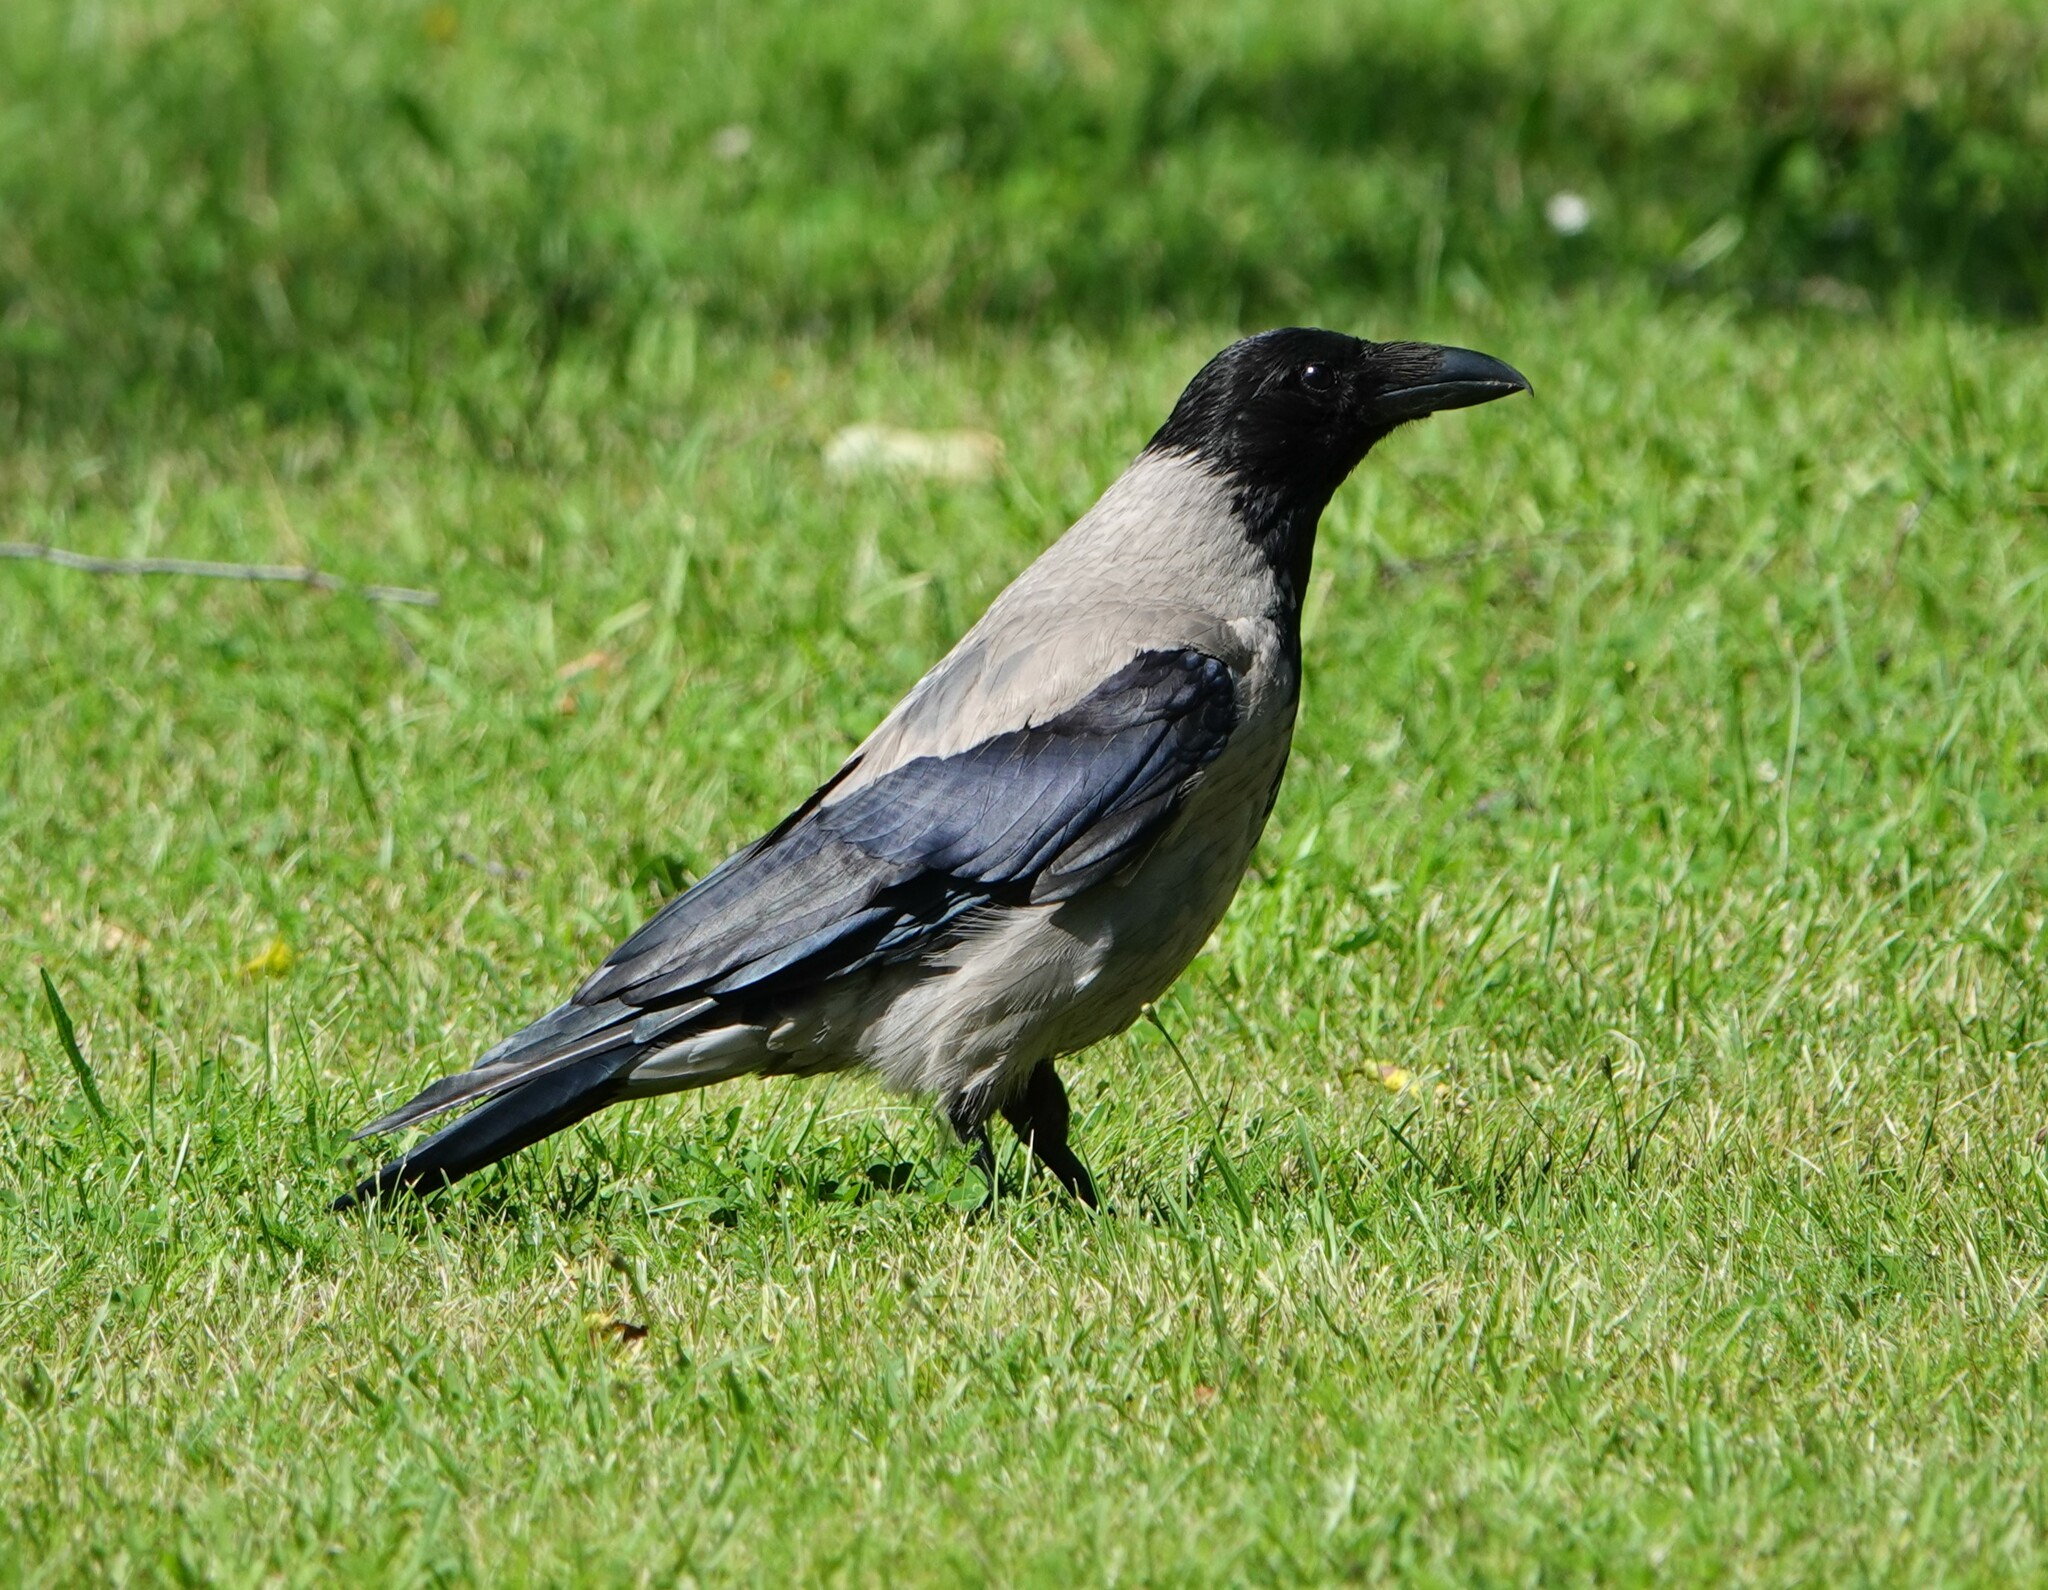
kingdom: Animalia
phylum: Chordata
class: Aves
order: Passeriformes
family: Corvidae
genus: Corvus
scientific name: Corvus cornix
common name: Hooded crow
